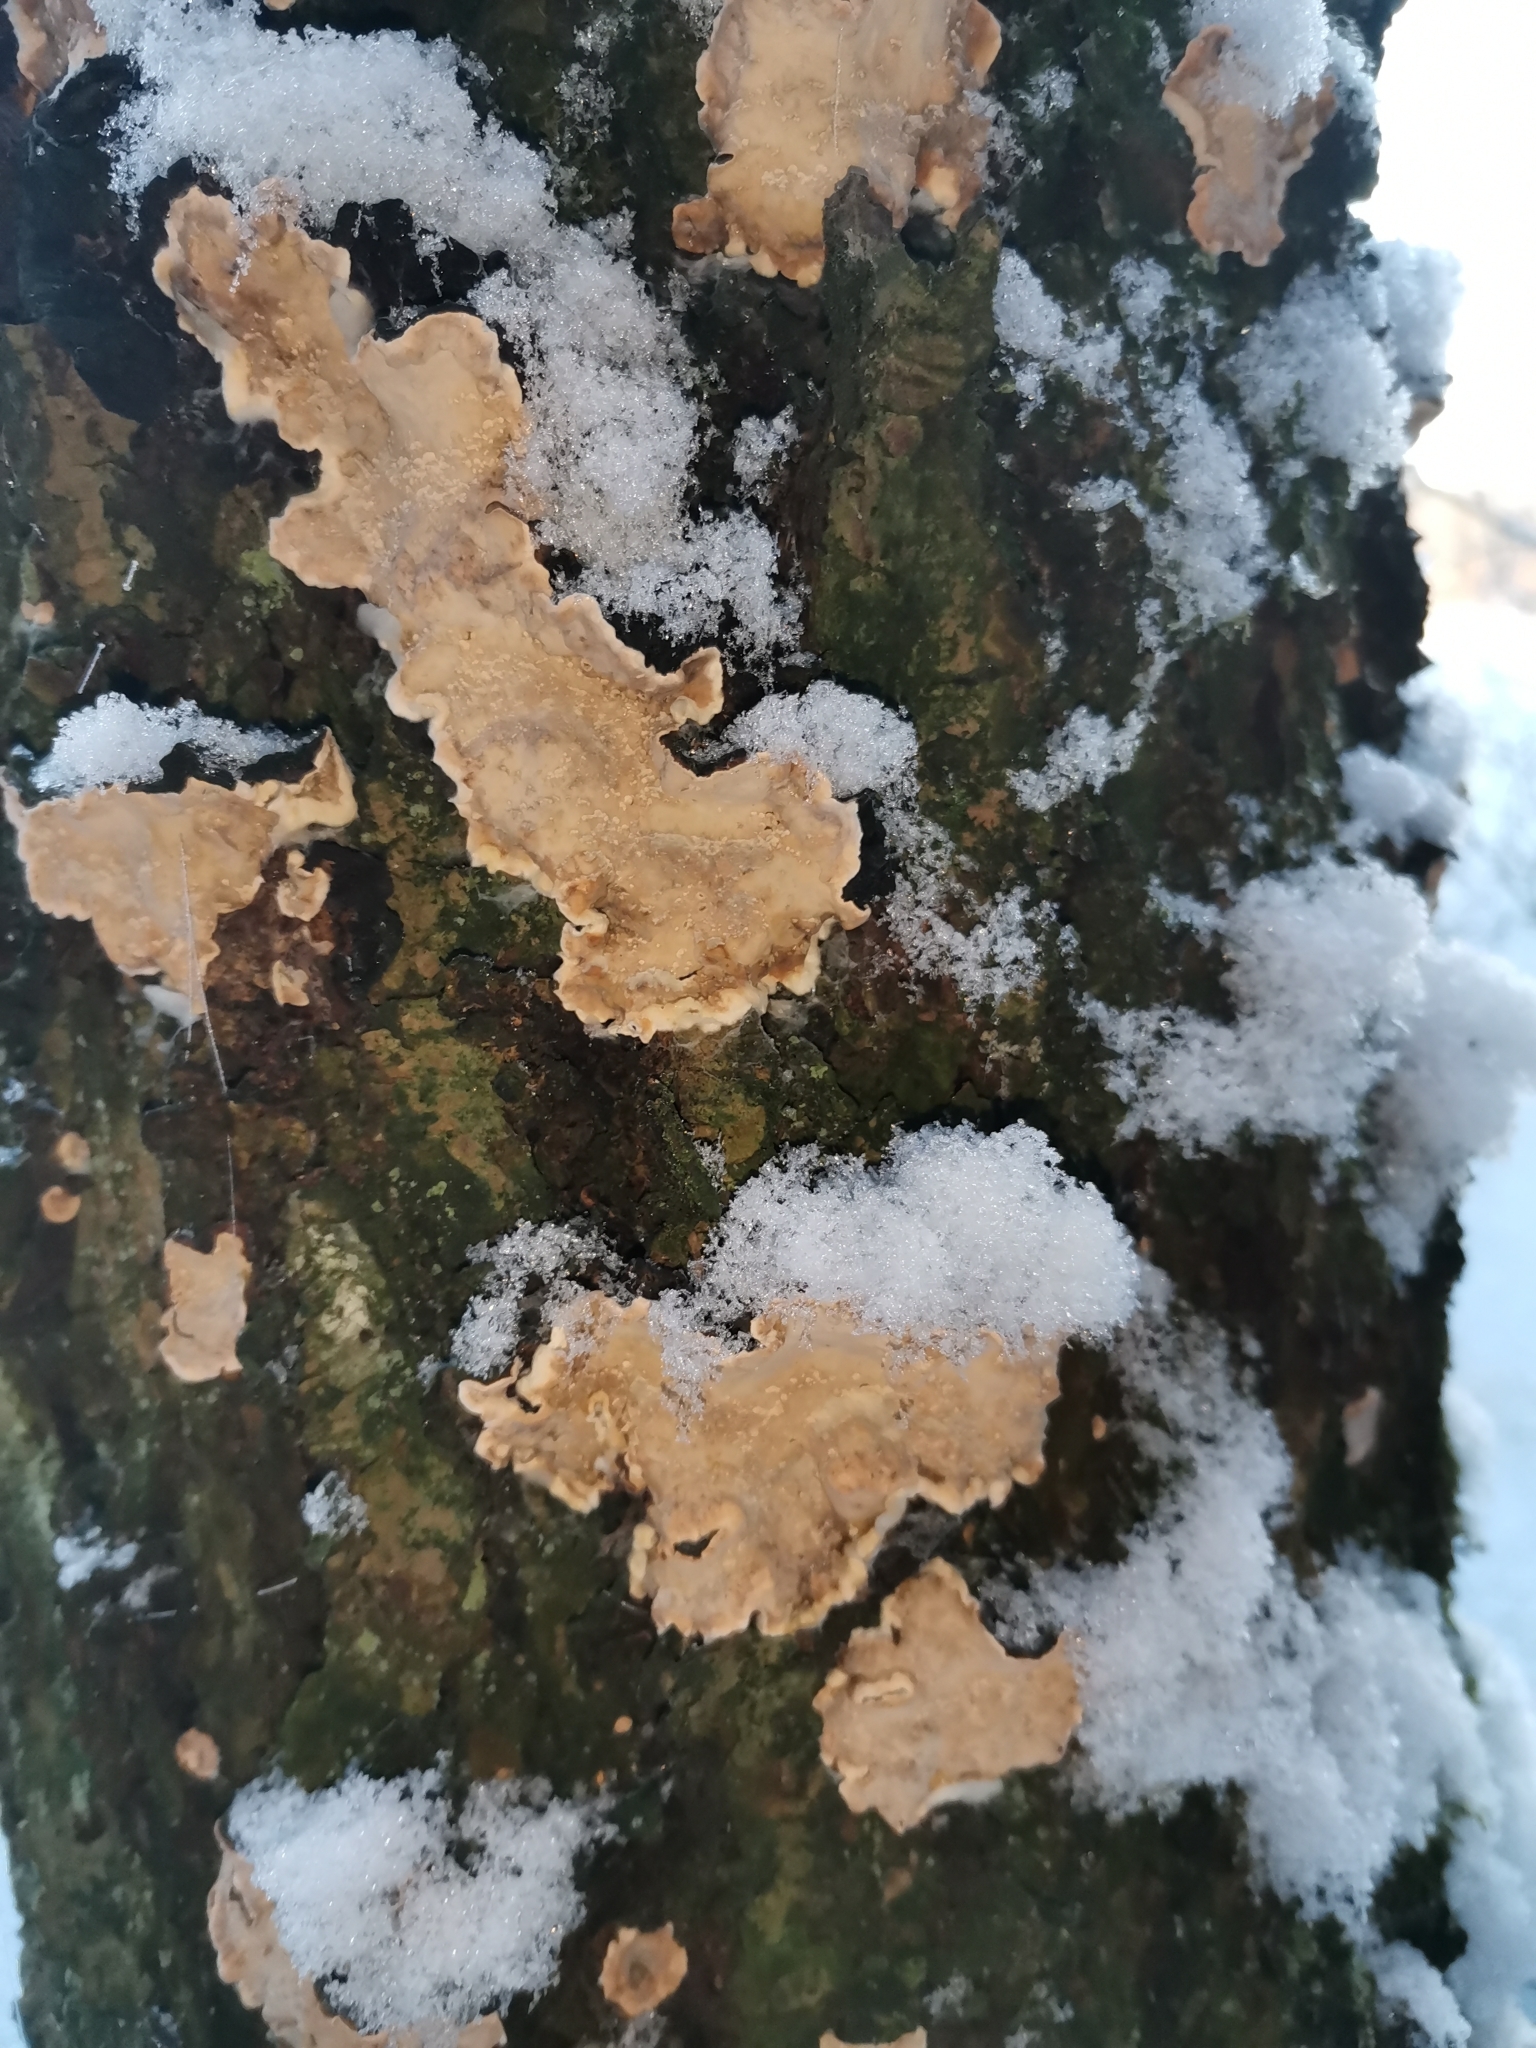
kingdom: Fungi
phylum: Basidiomycota
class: Agaricomycetes
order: Russulales
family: Stereaceae
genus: Stereum
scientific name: Stereum rugosum
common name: Bleeding broadleaf crust
